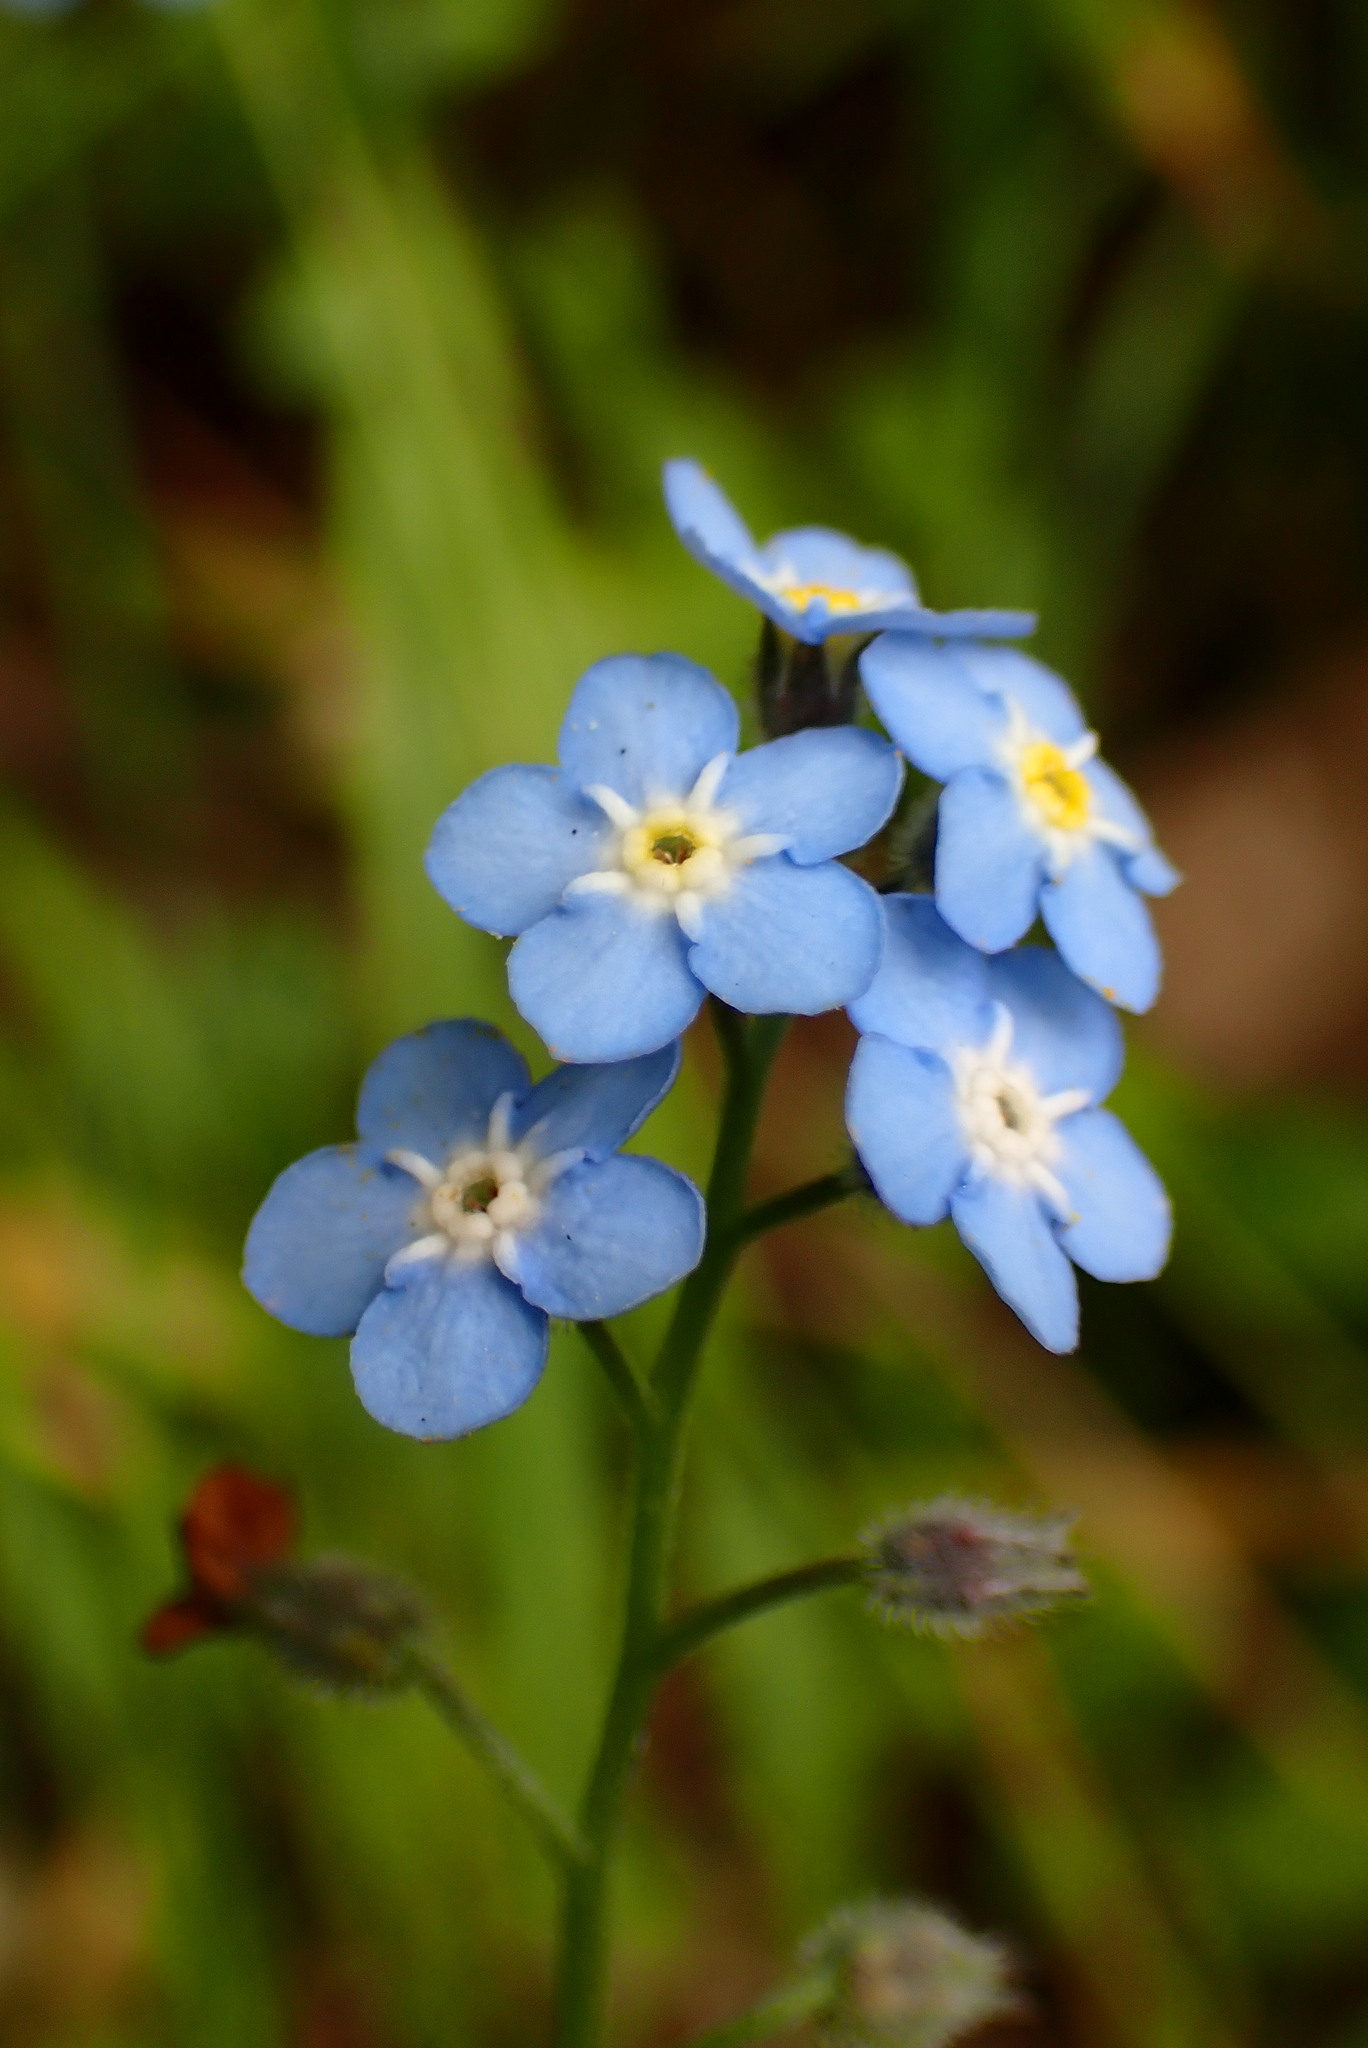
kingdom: Plantae
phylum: Tracheophyta
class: Magnoliopsida
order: Boraginales
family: Boraginaceae
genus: Myosotis
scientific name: Myosotis latifolia
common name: Broadleaf forget-me-not
